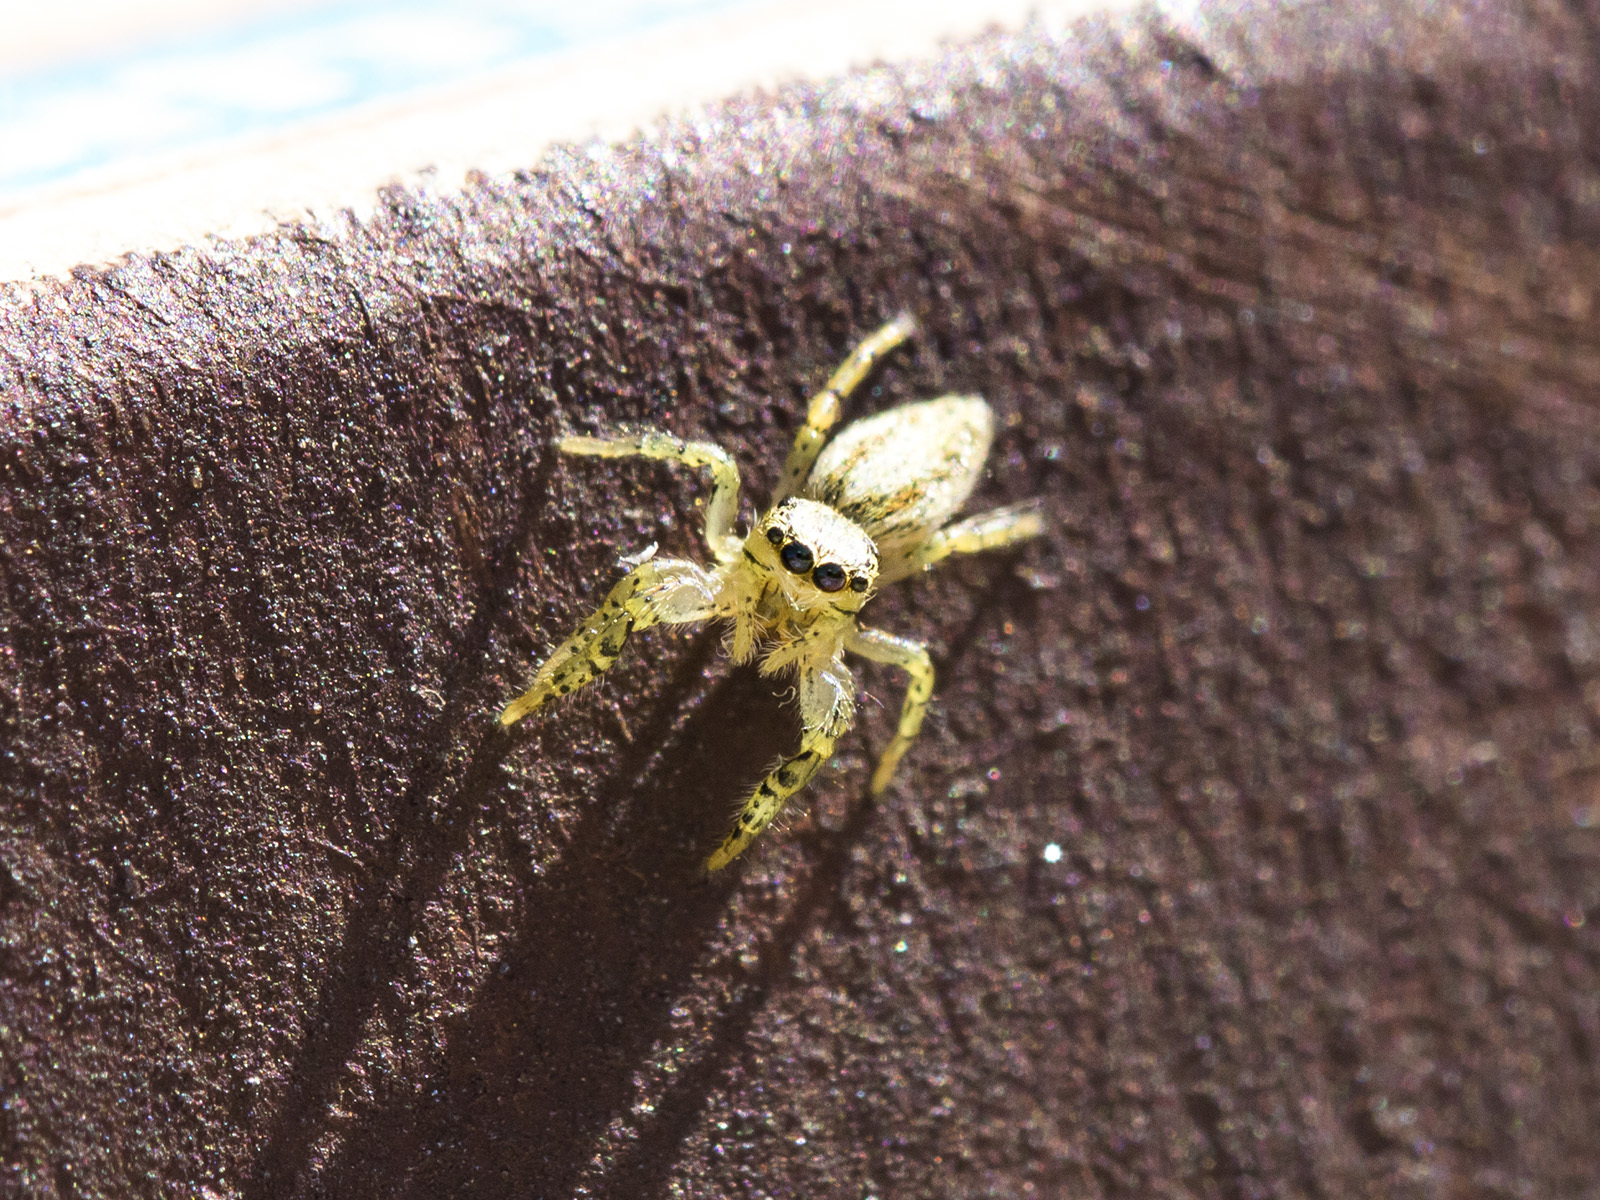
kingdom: Animalia
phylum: Arthropoda
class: Arachnida
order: Araneae
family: Salticidae
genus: Marpissa
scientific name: Marpissa pomatia
